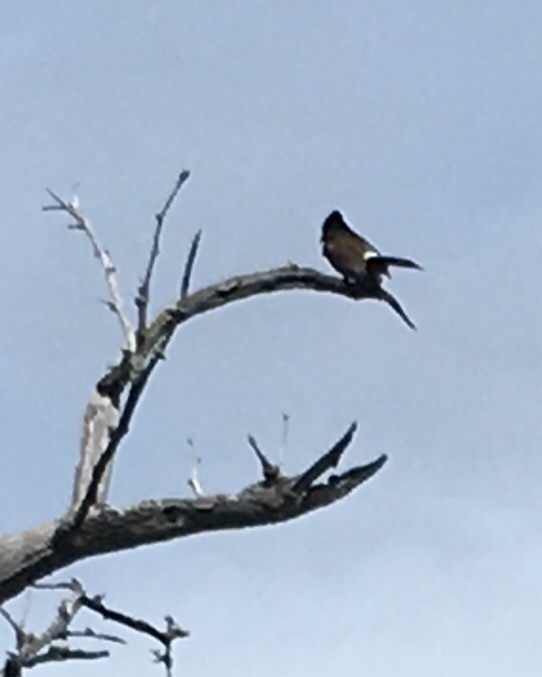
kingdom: Animalia
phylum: Chordata
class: Aves
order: Passeriformes
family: Pycnonotidae
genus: Pycnonotus
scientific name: Pycnonotus cafer
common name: Red-vented bulbul
